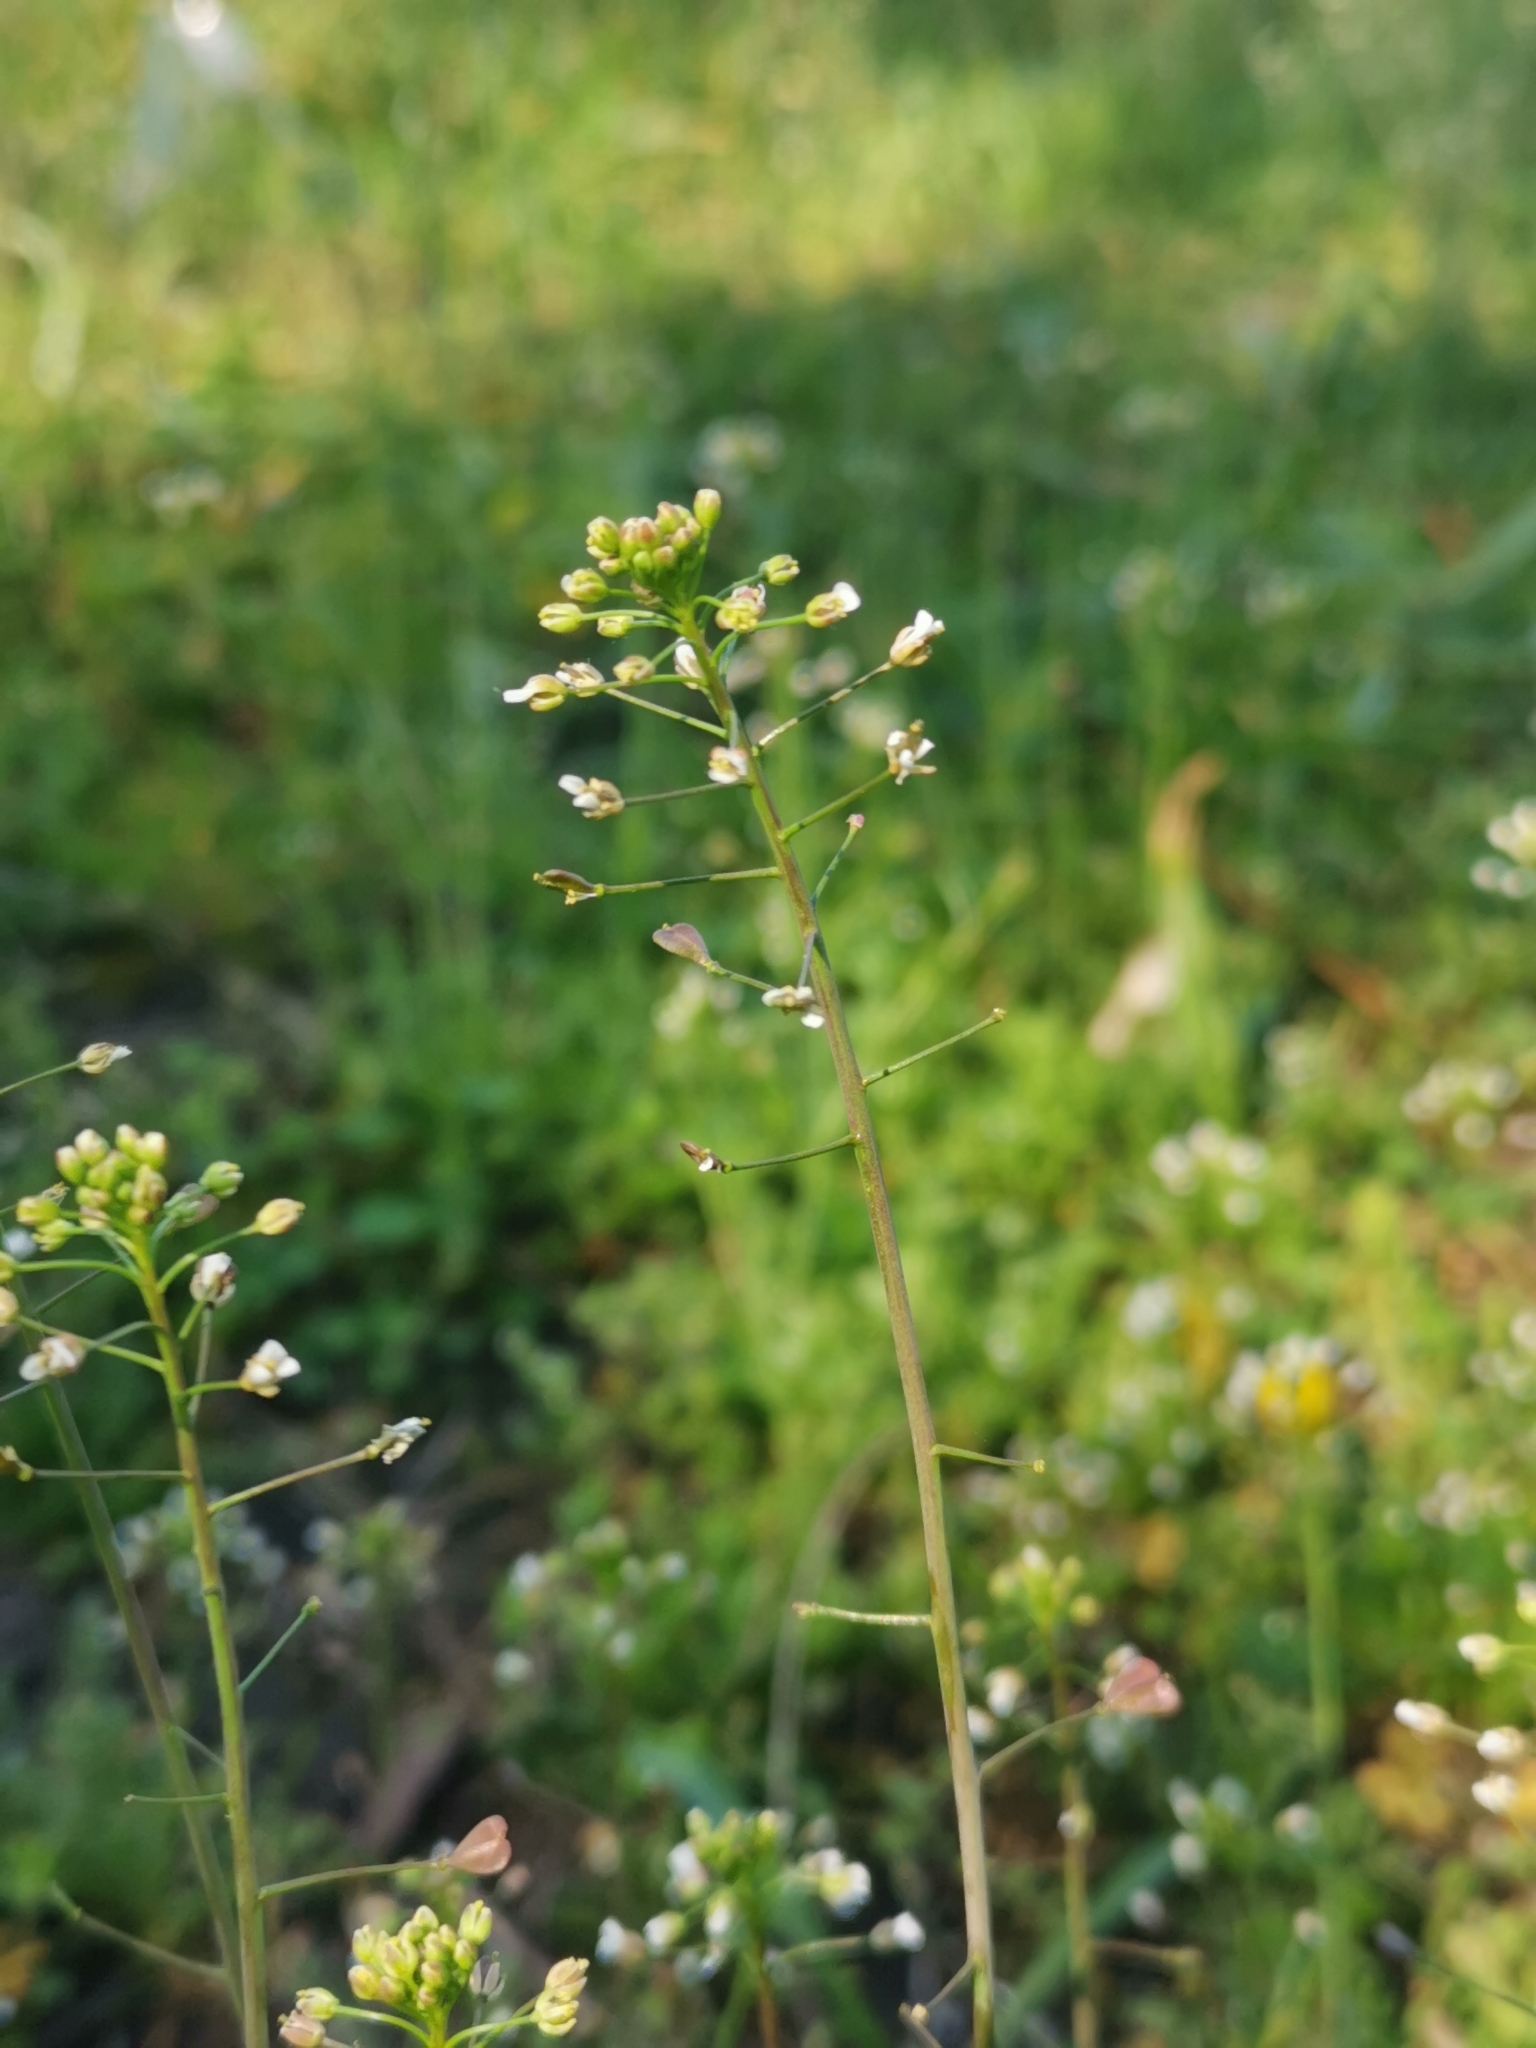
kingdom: Plantae
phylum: Tracheophyta
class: Magnoliopsida
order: Brassicales
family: Brassicaceae
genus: Capsella
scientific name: Capsella bursa-pastoris
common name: Shepherd's purse
